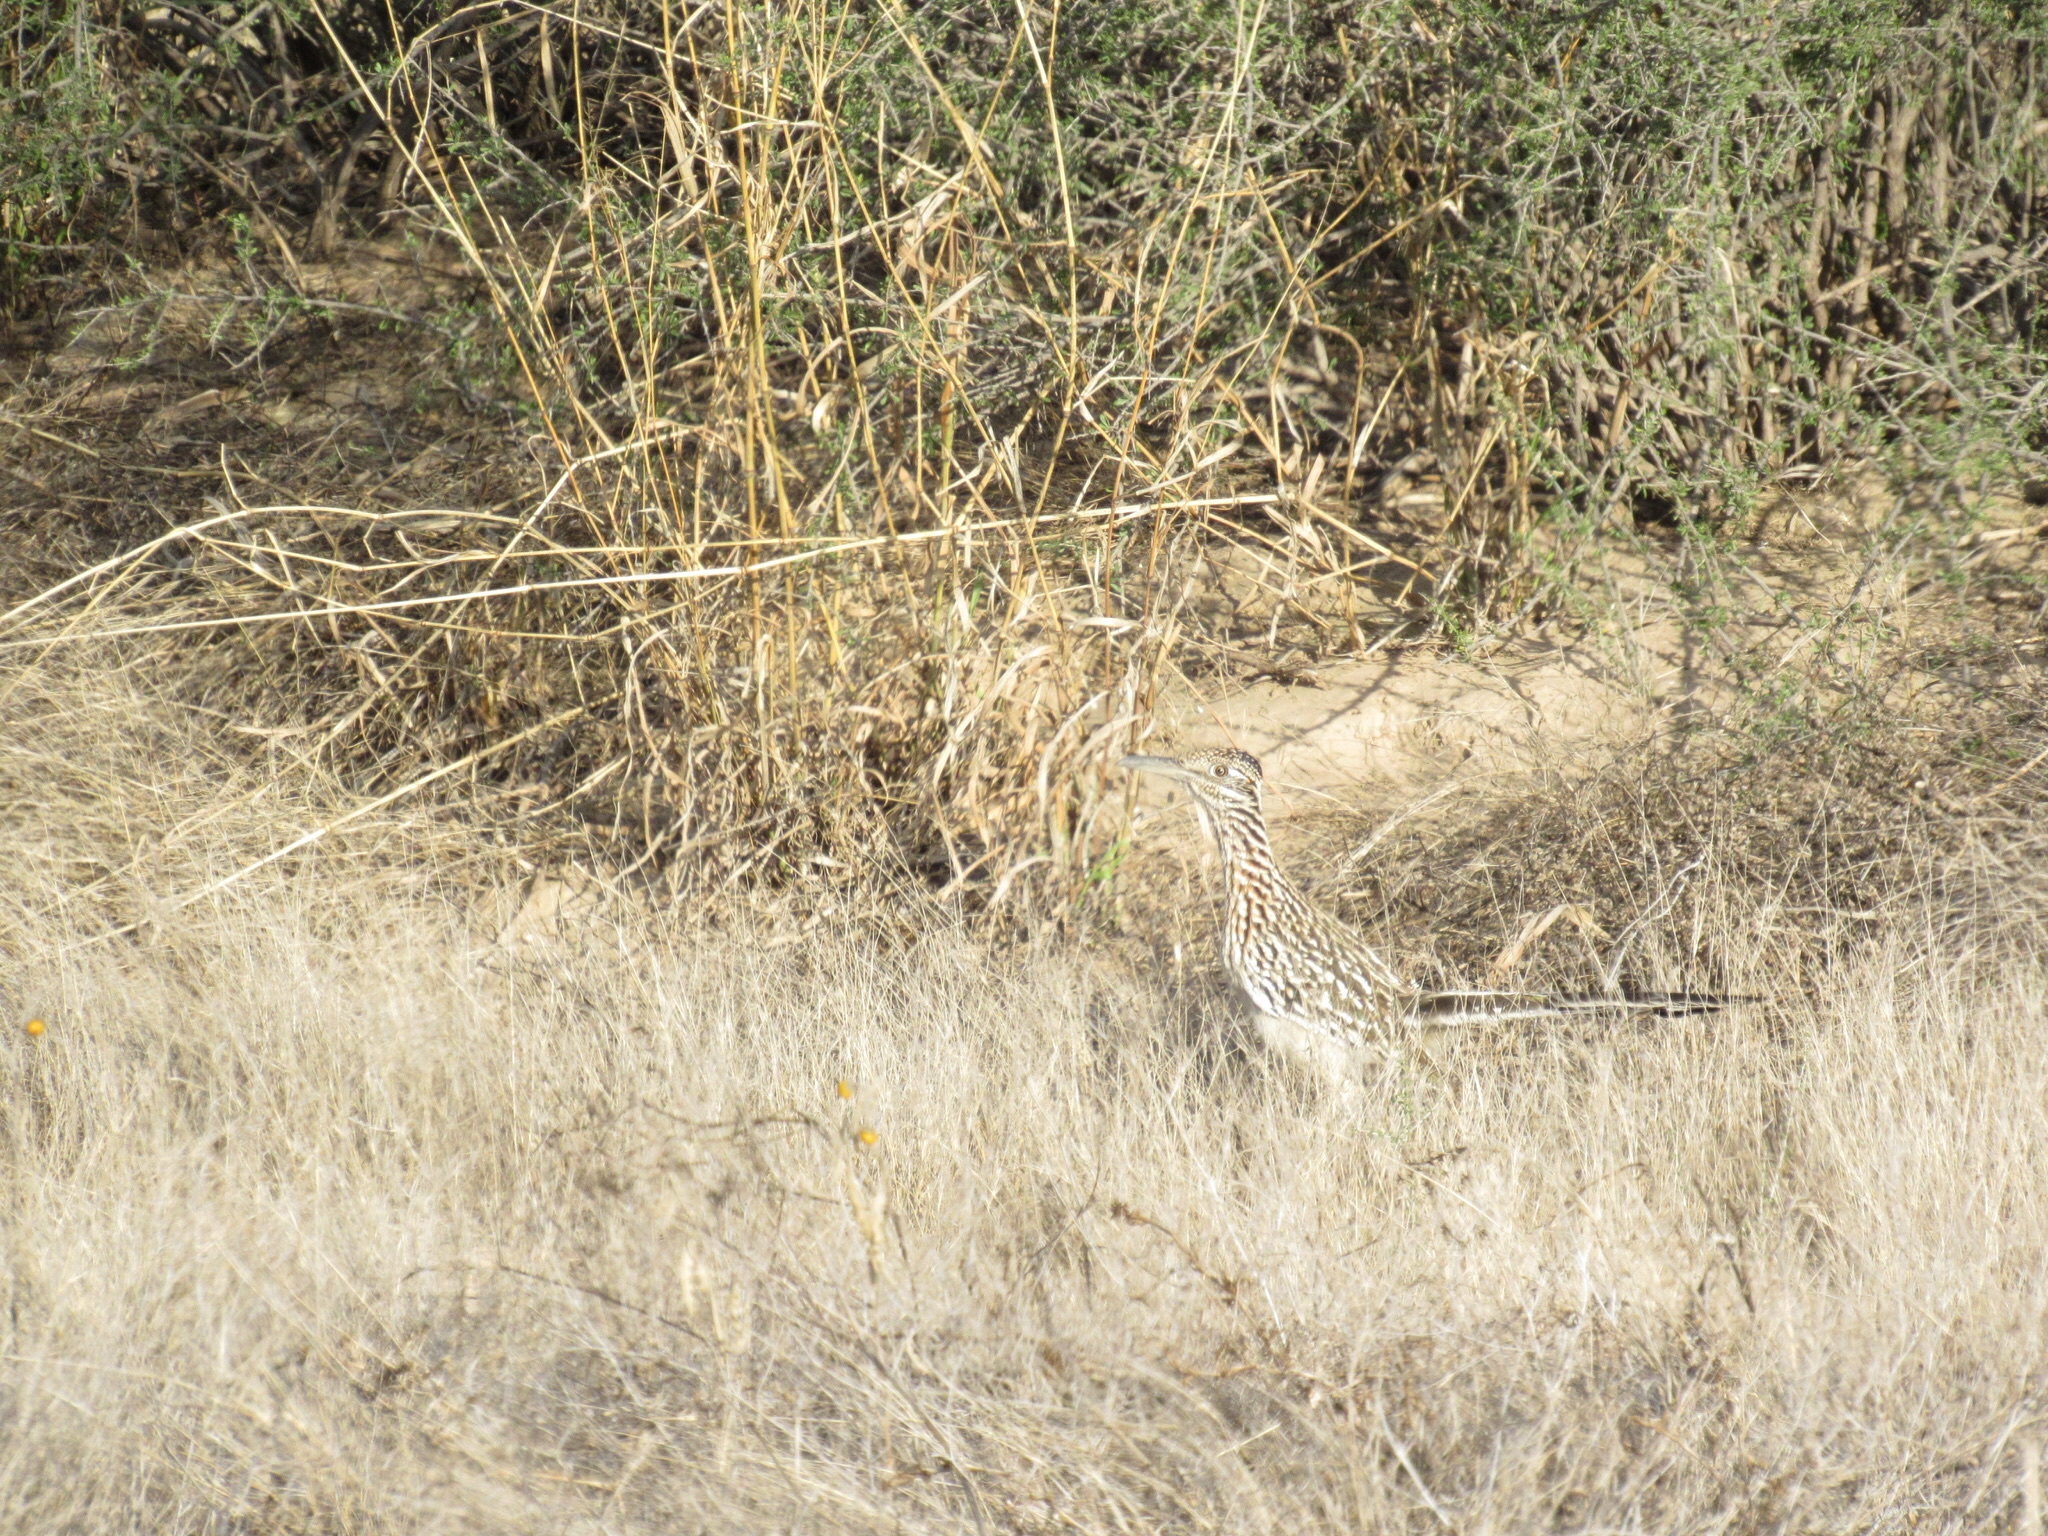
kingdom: Animalia
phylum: Chordata
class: Aves
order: Cuculiformes
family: Cuculidae
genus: Geococcyx
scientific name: Geococcyx californianus
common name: Greater roadrunner
